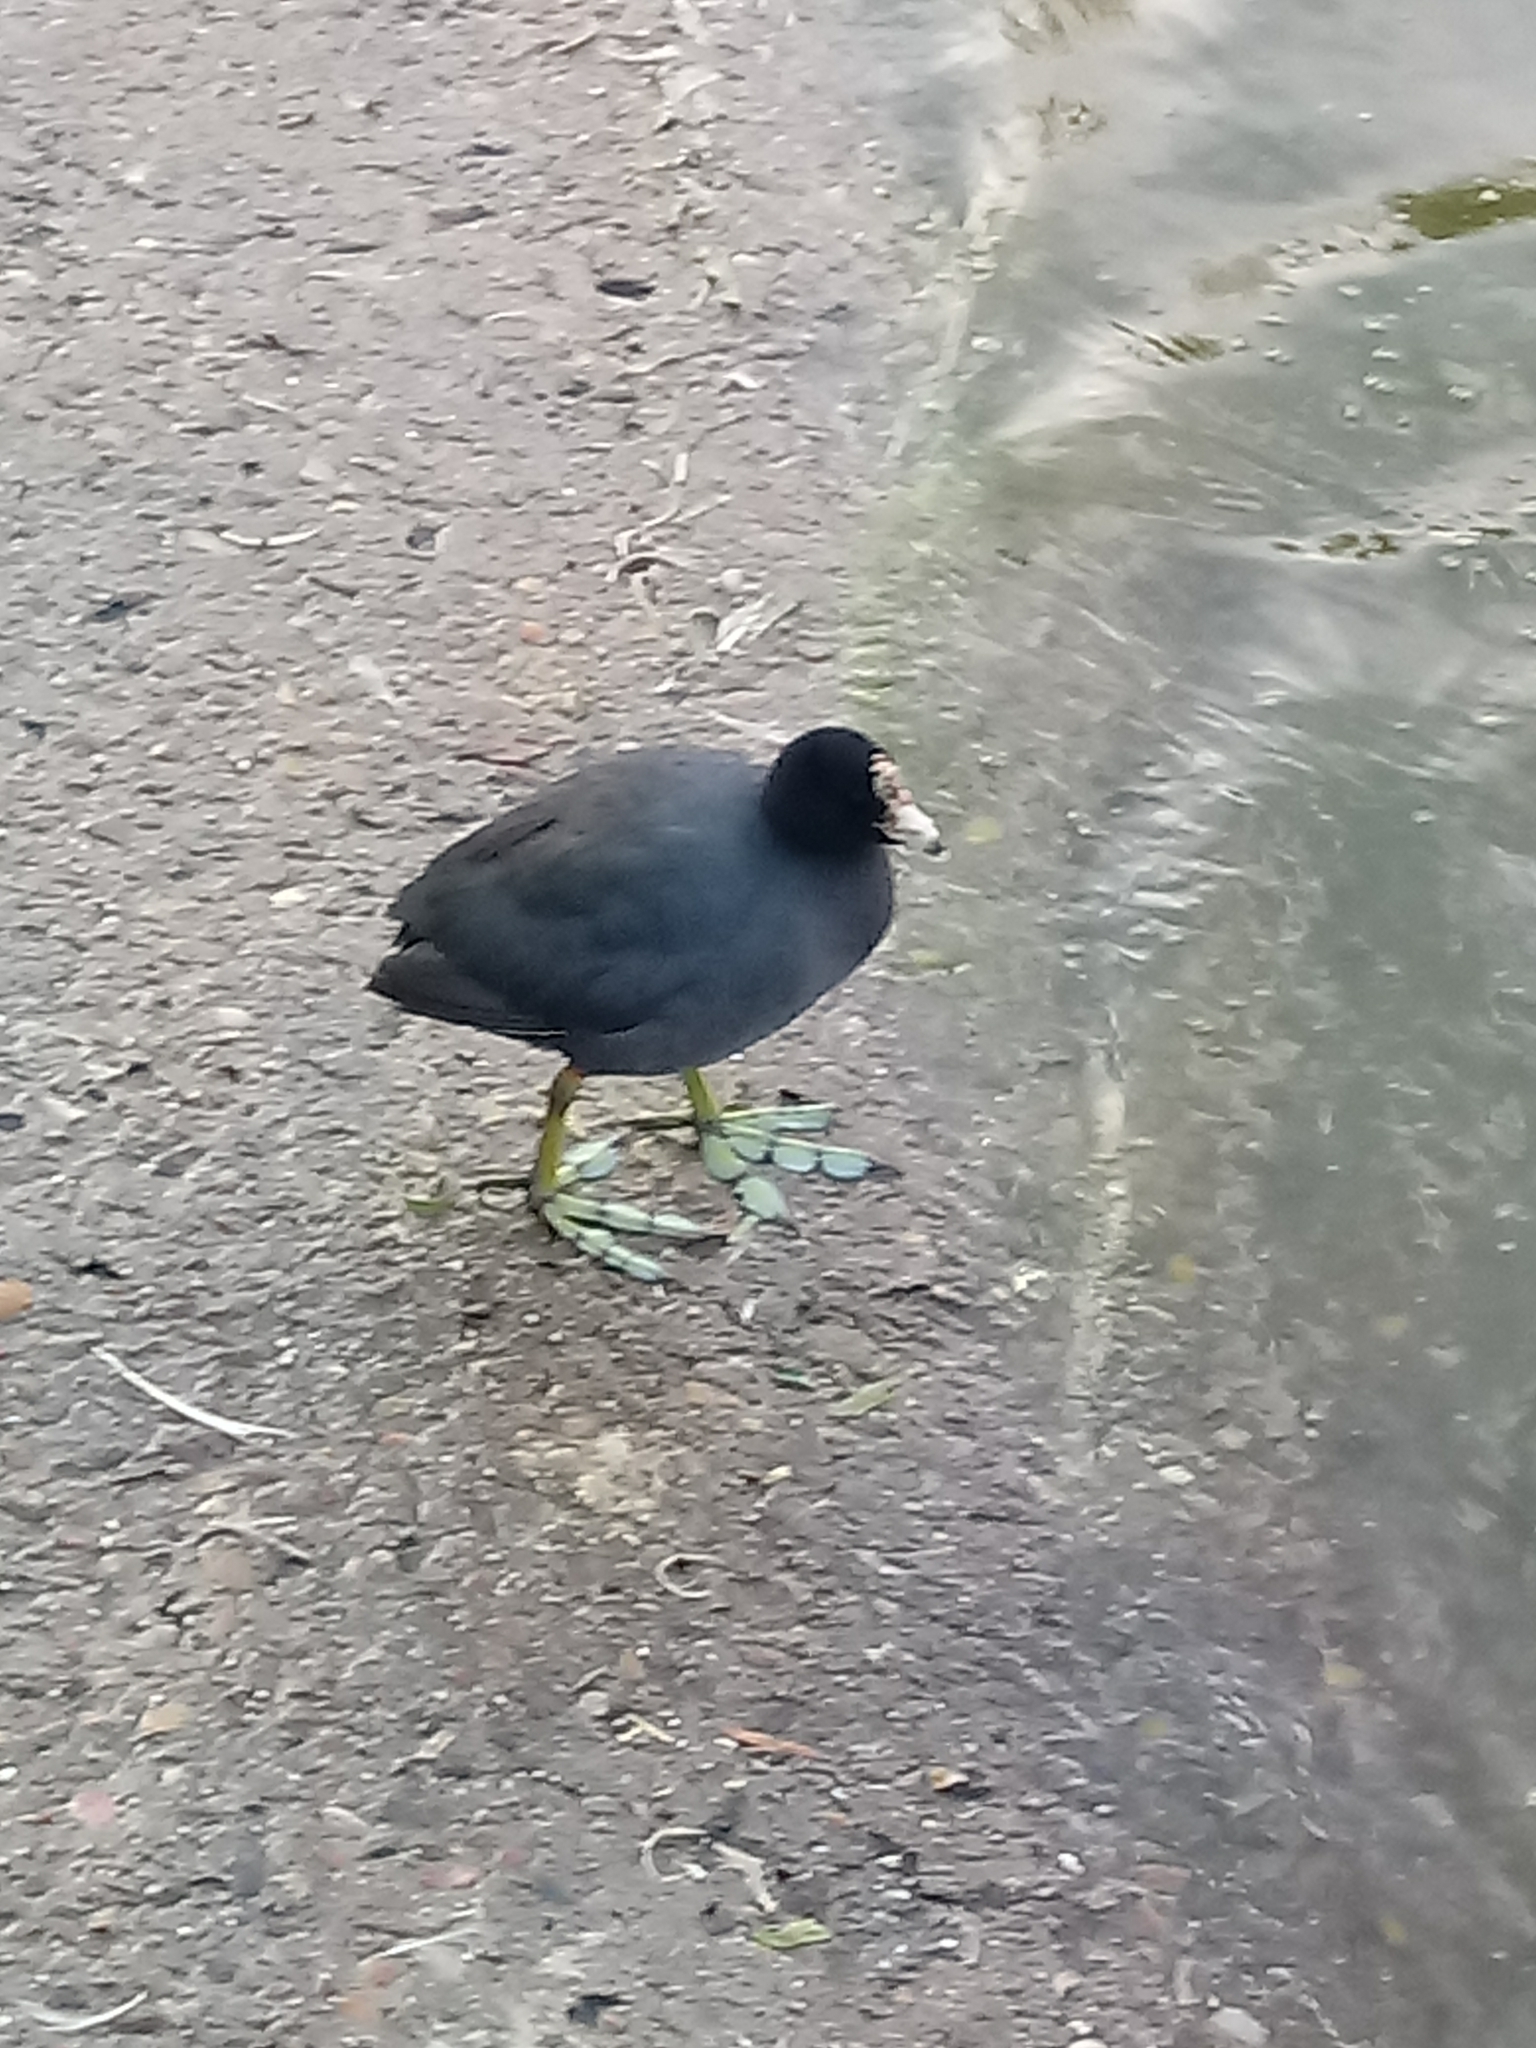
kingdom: Animalia
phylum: Chordata
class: Aves
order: Gruiformes
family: Rallidae
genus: Fulica
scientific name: Fulica americana
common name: American coot
